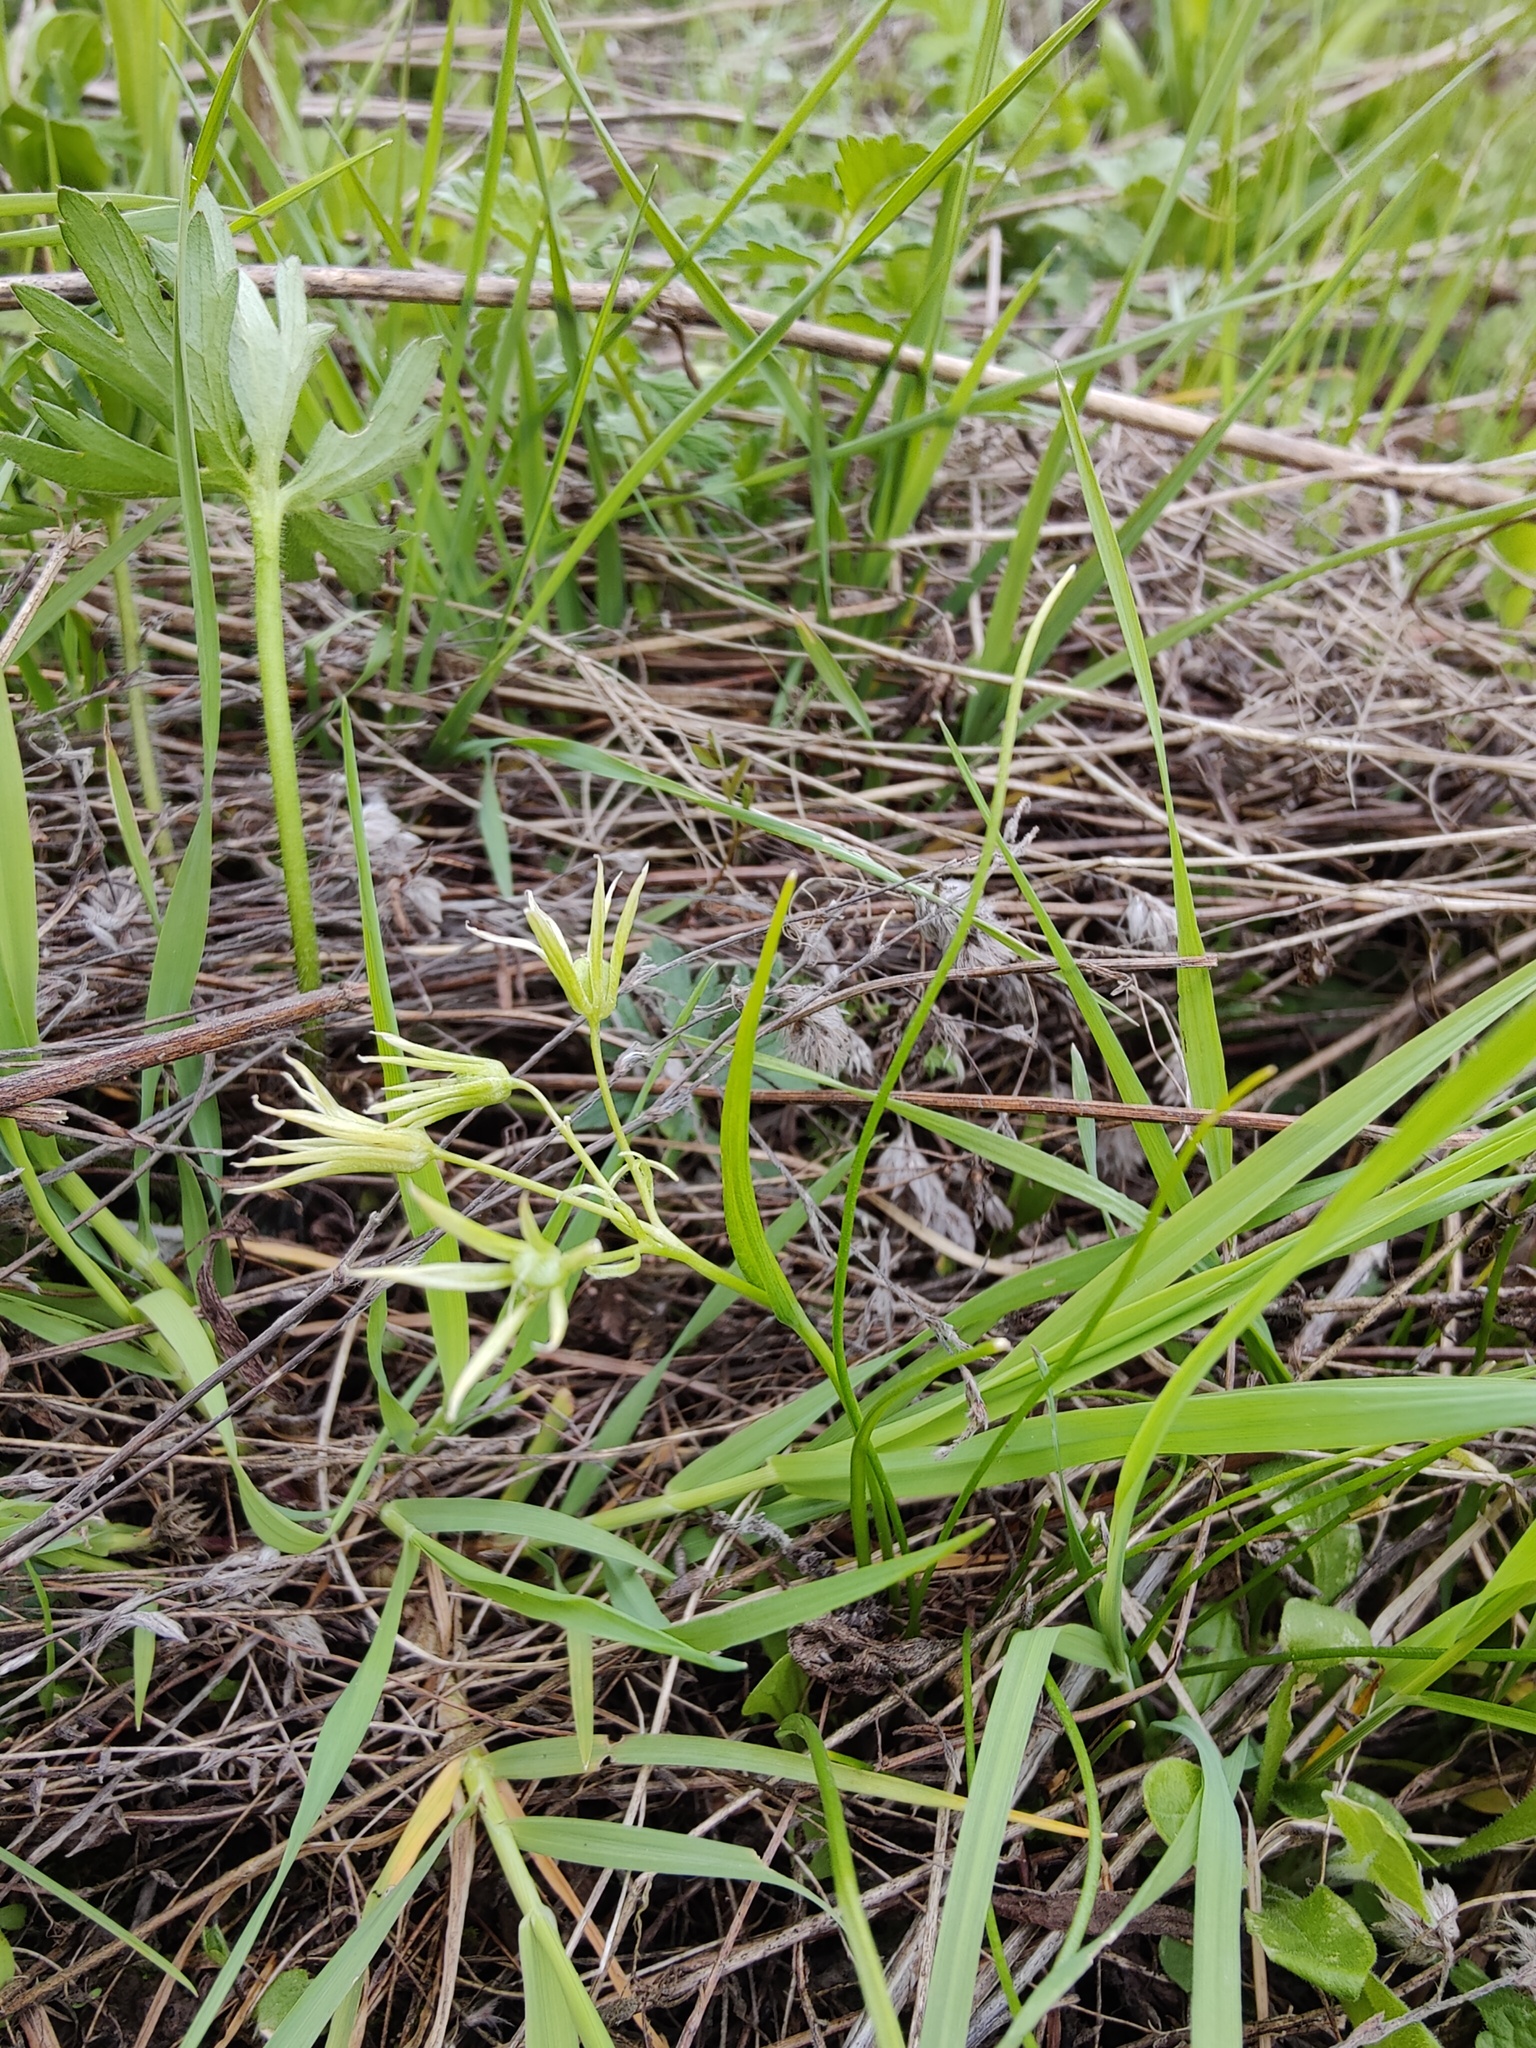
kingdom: Plantae
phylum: Tracheophyta
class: Liliopsida
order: Liliales
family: Liliaceae
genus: Gagea
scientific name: Gagea minima
